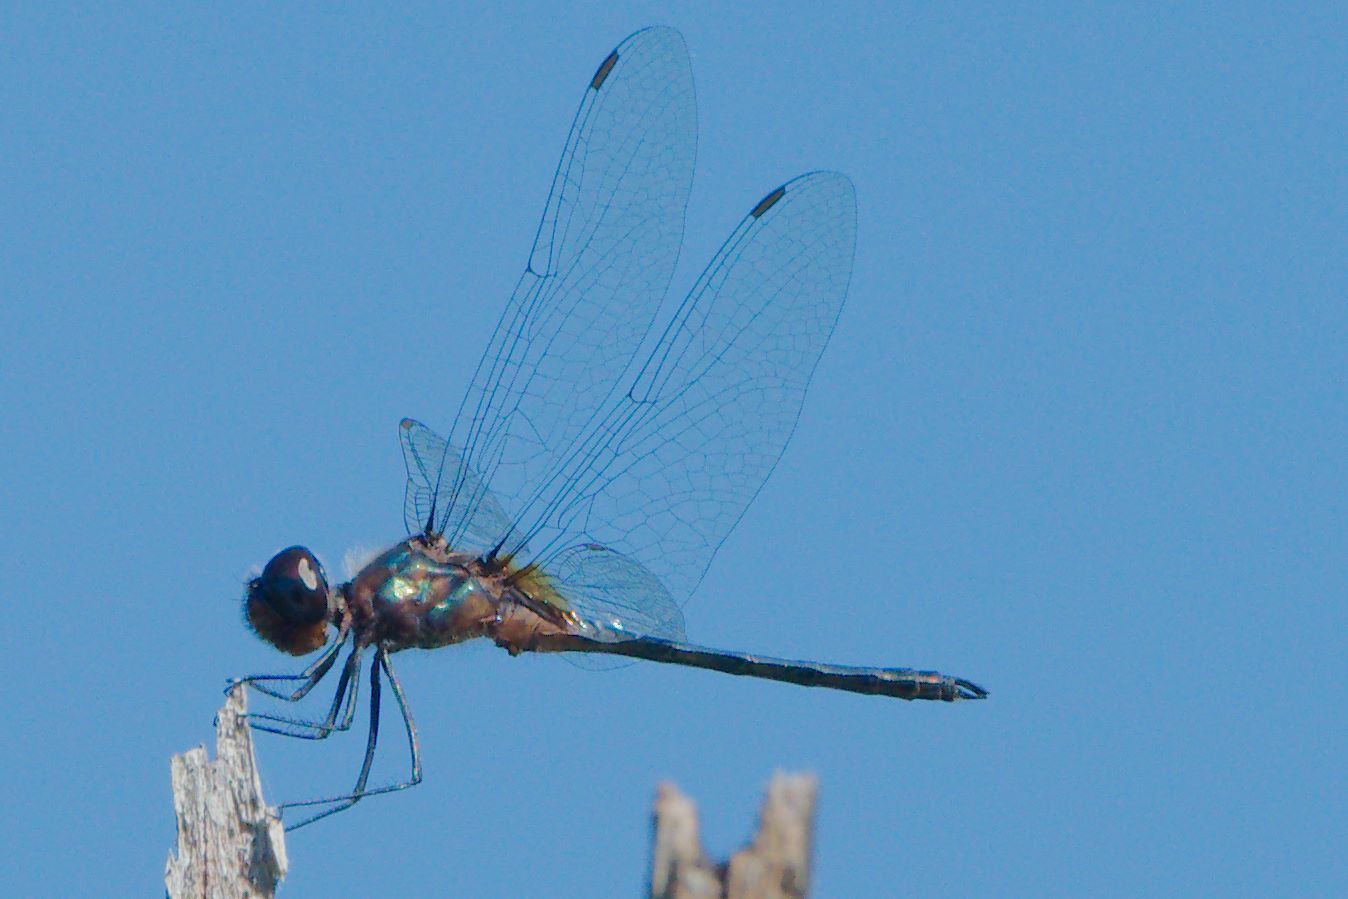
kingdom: Animalia
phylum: Arthropoda
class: Insecta
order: Odonata
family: Libellulidae
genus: Idiataphe
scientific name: Idiataphe cubensis
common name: Metallic pennant
